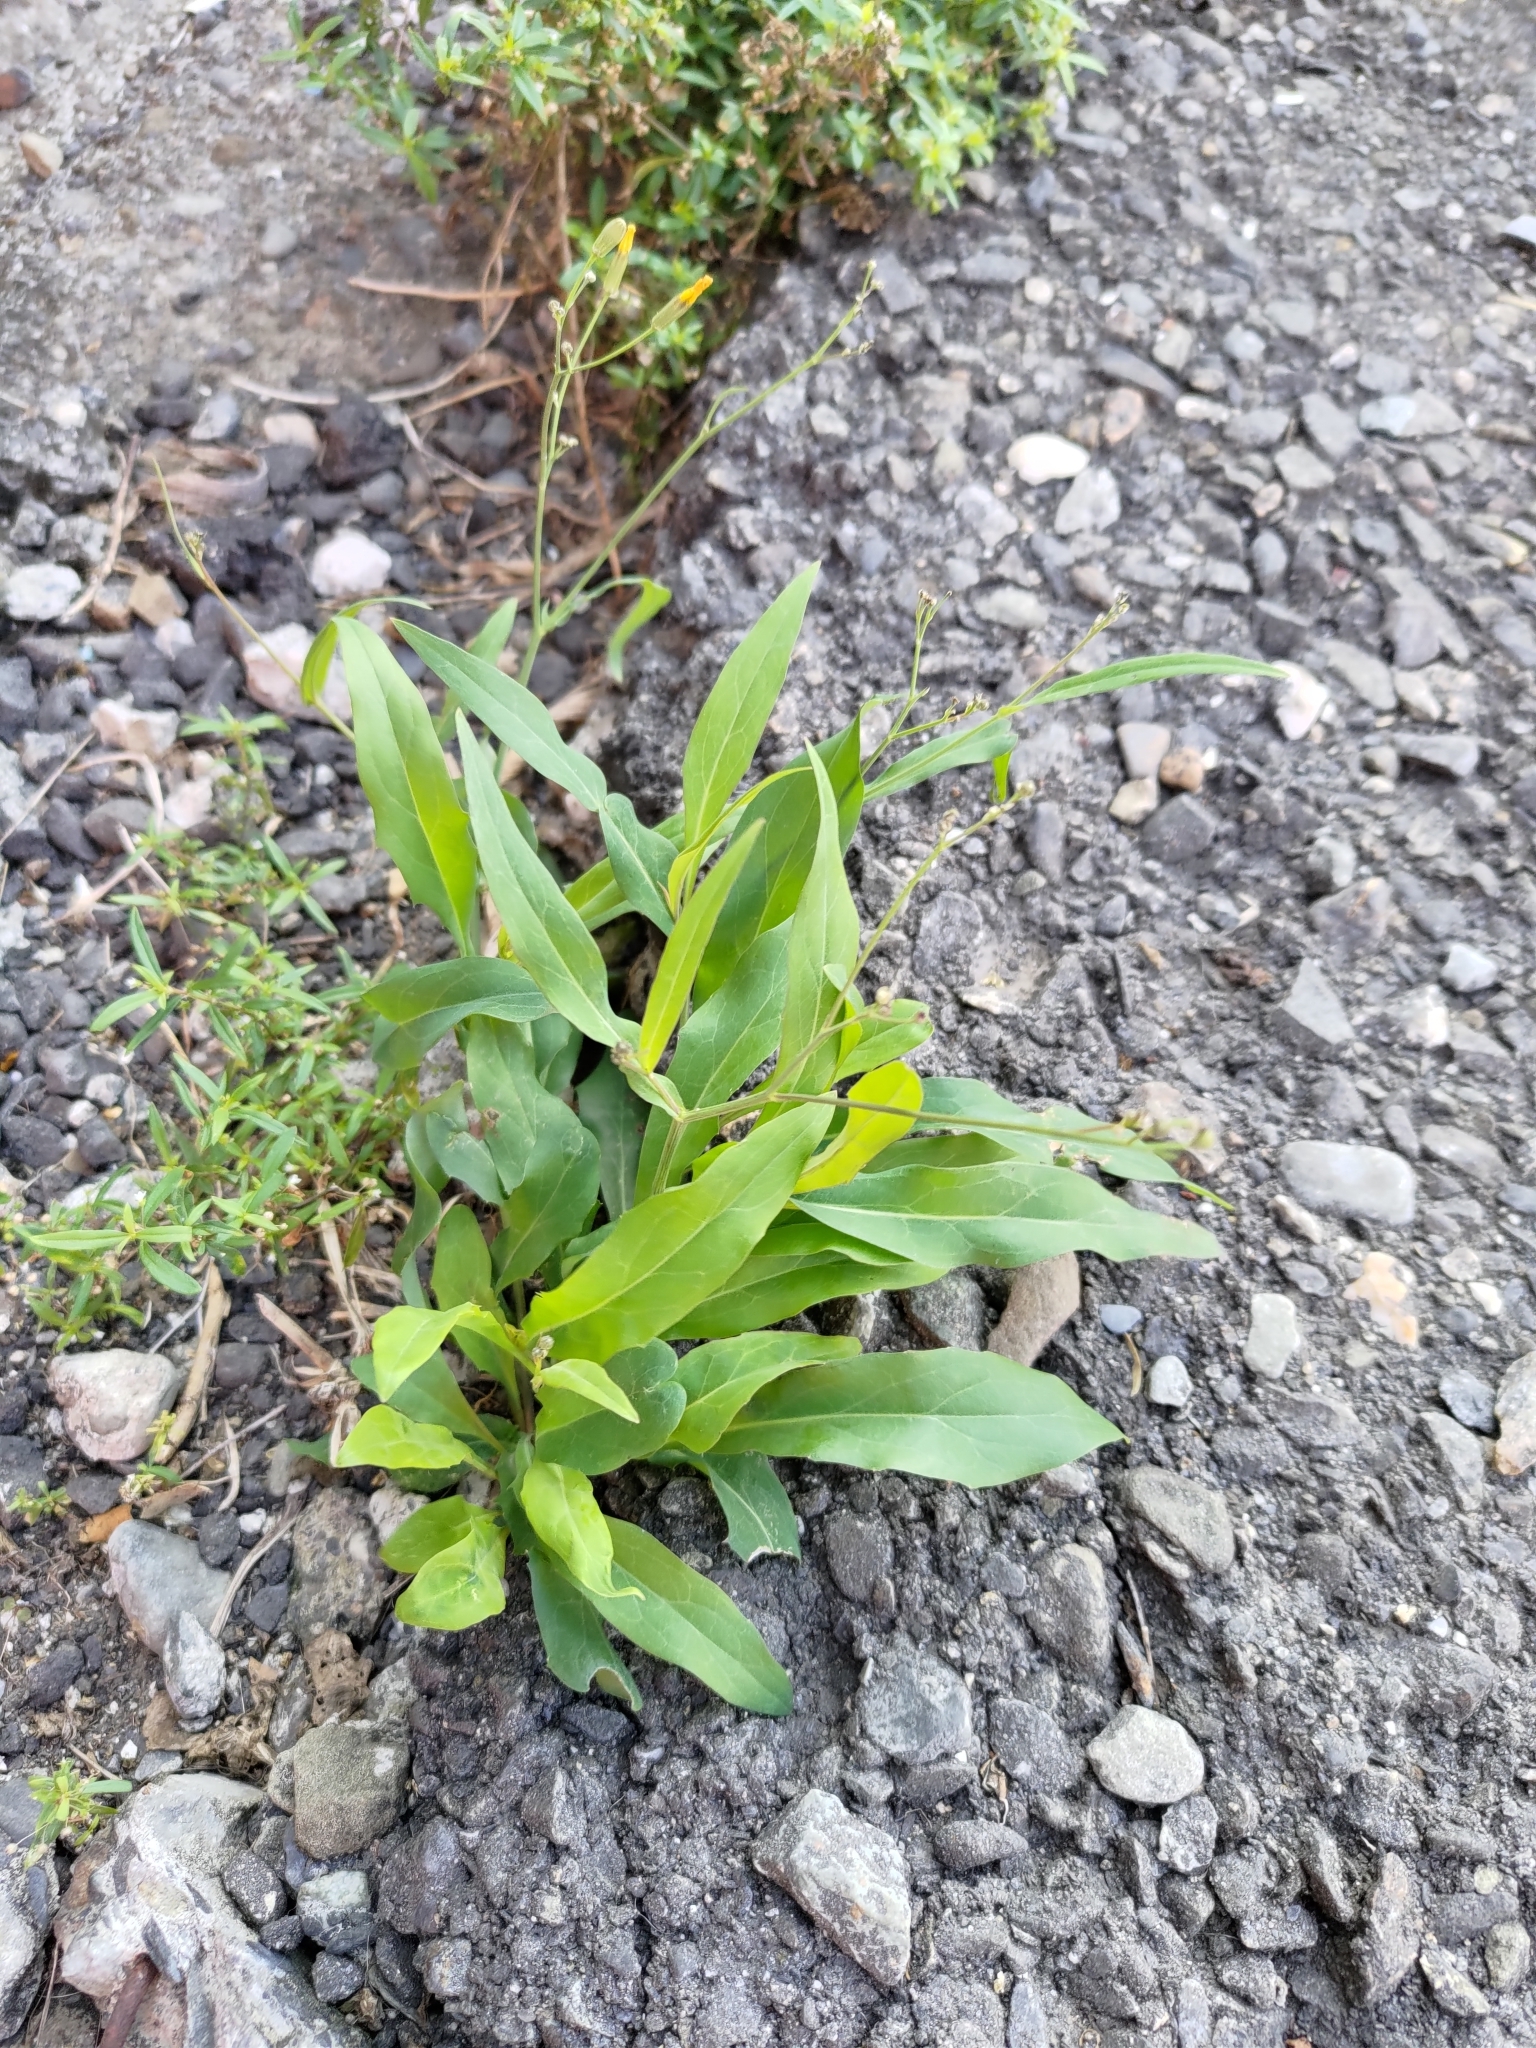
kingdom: Plantae
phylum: Tracheophyta
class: Magnoliopsida
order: Asterales
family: Asteraceae
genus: Ixeris
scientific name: Ixeris chinensis
